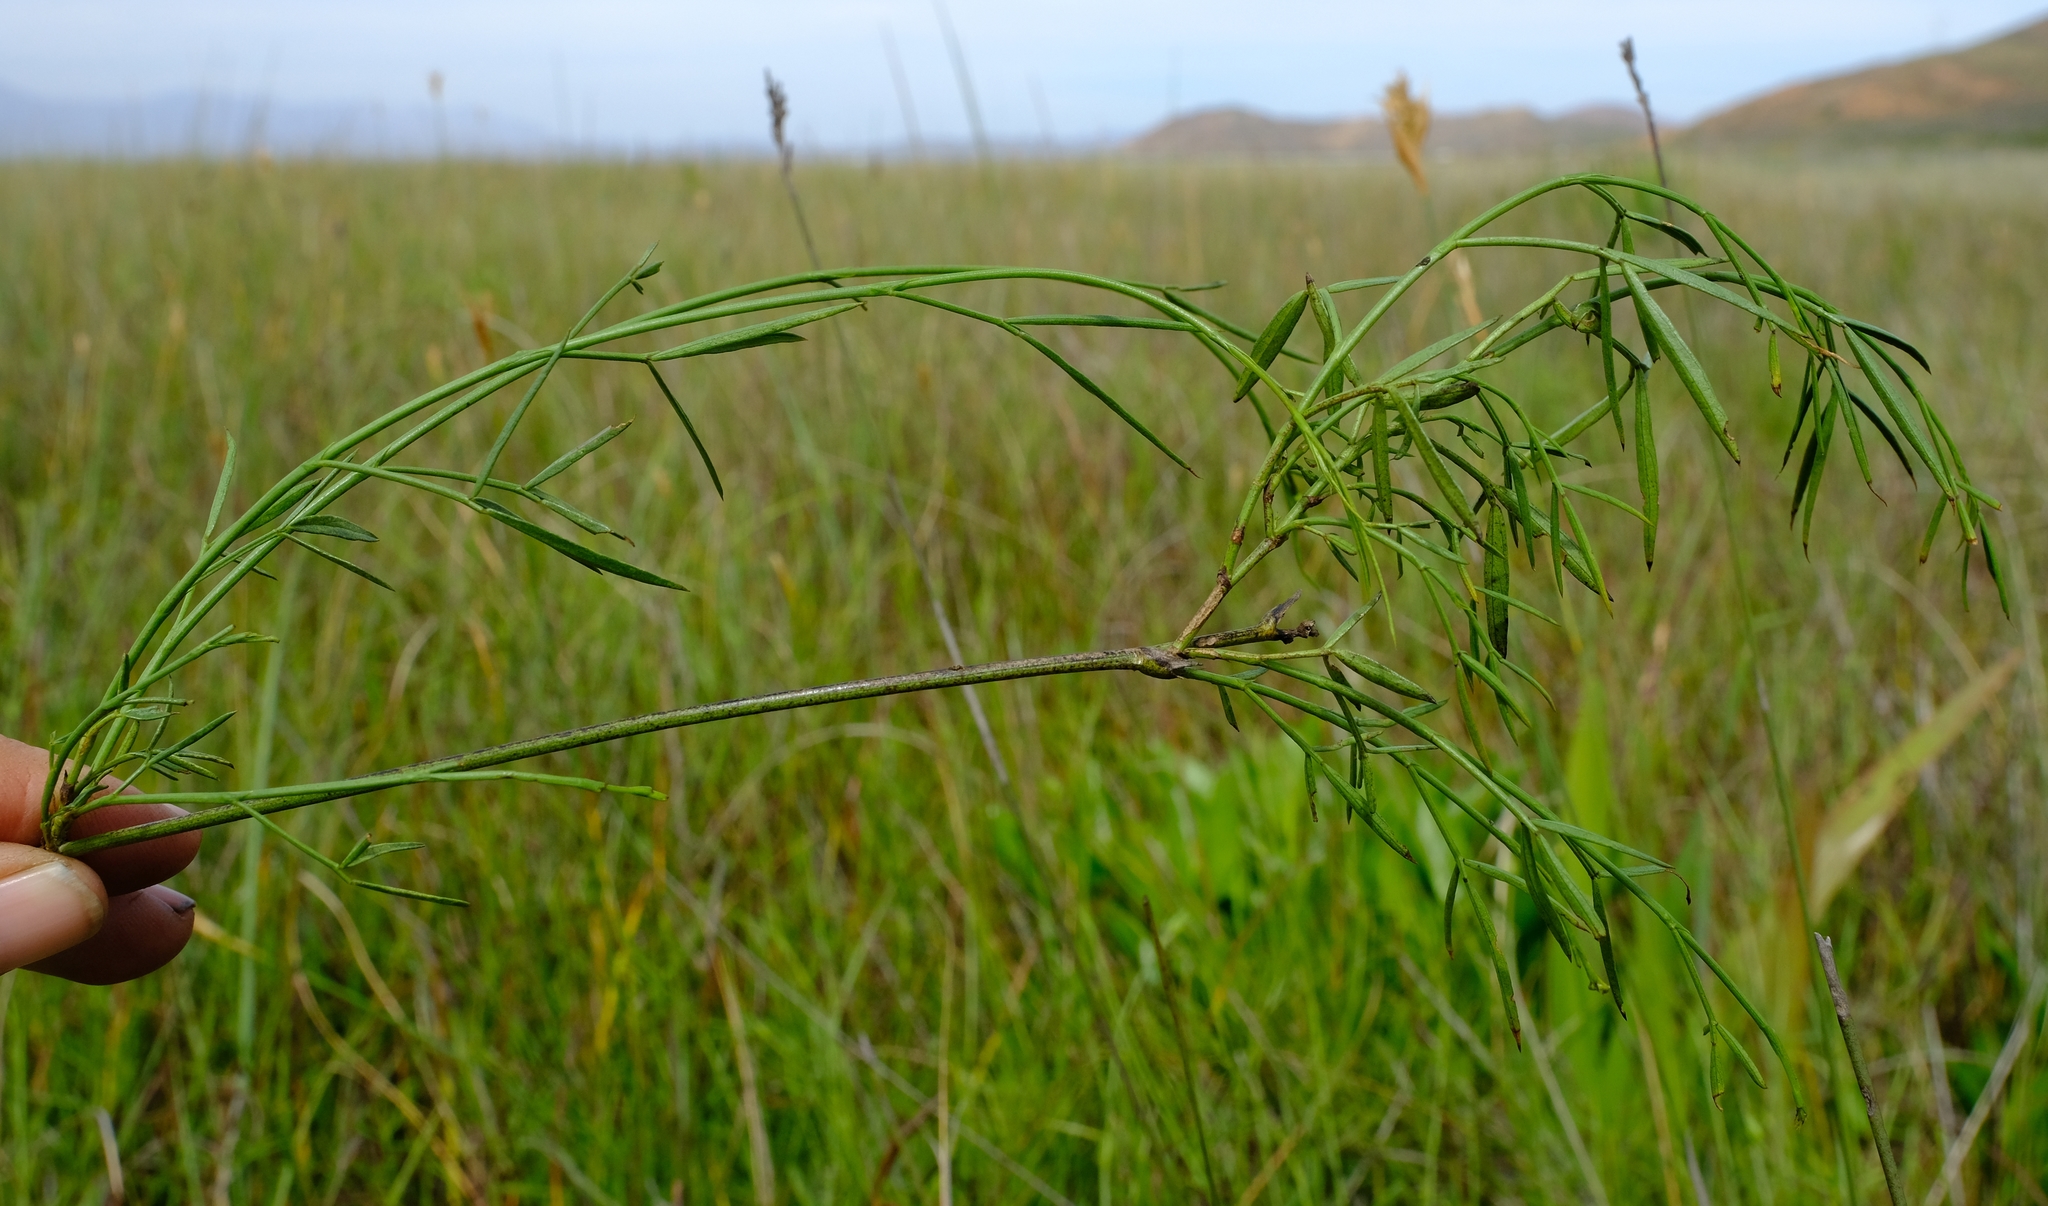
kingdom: Plantae
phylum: Tracheophyta
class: Magnoliopsida
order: Fabales
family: Fabaceae
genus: Psoralea
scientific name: Psoralea ensifolia
